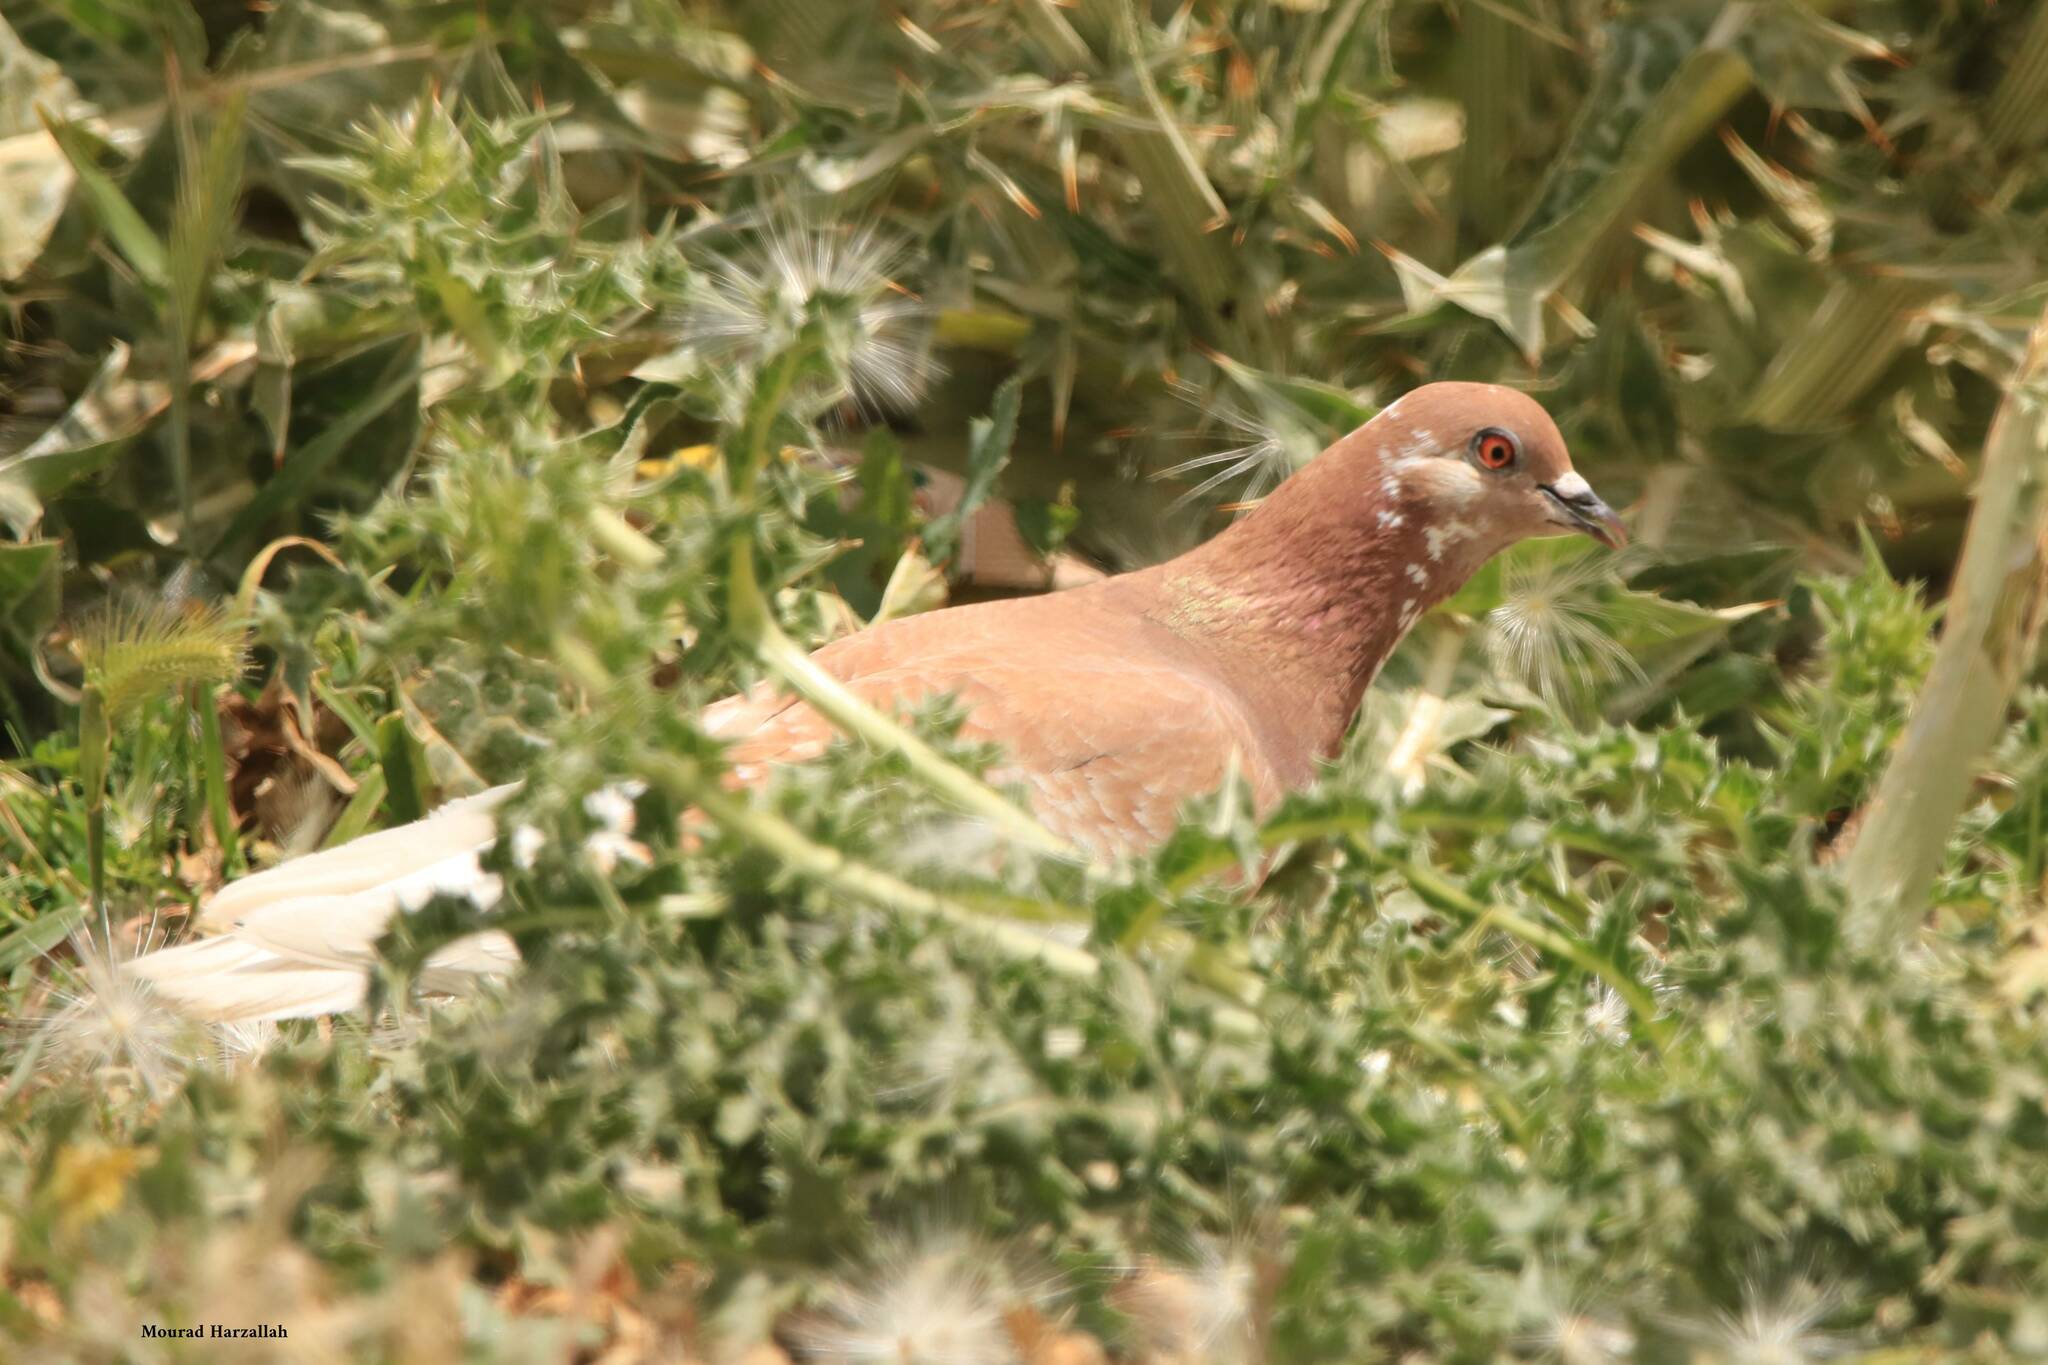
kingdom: Animalia
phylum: Chordata
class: Aves
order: Columbiformes
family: Columbidae
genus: Columba
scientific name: Columba livia
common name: Rock pigeon
